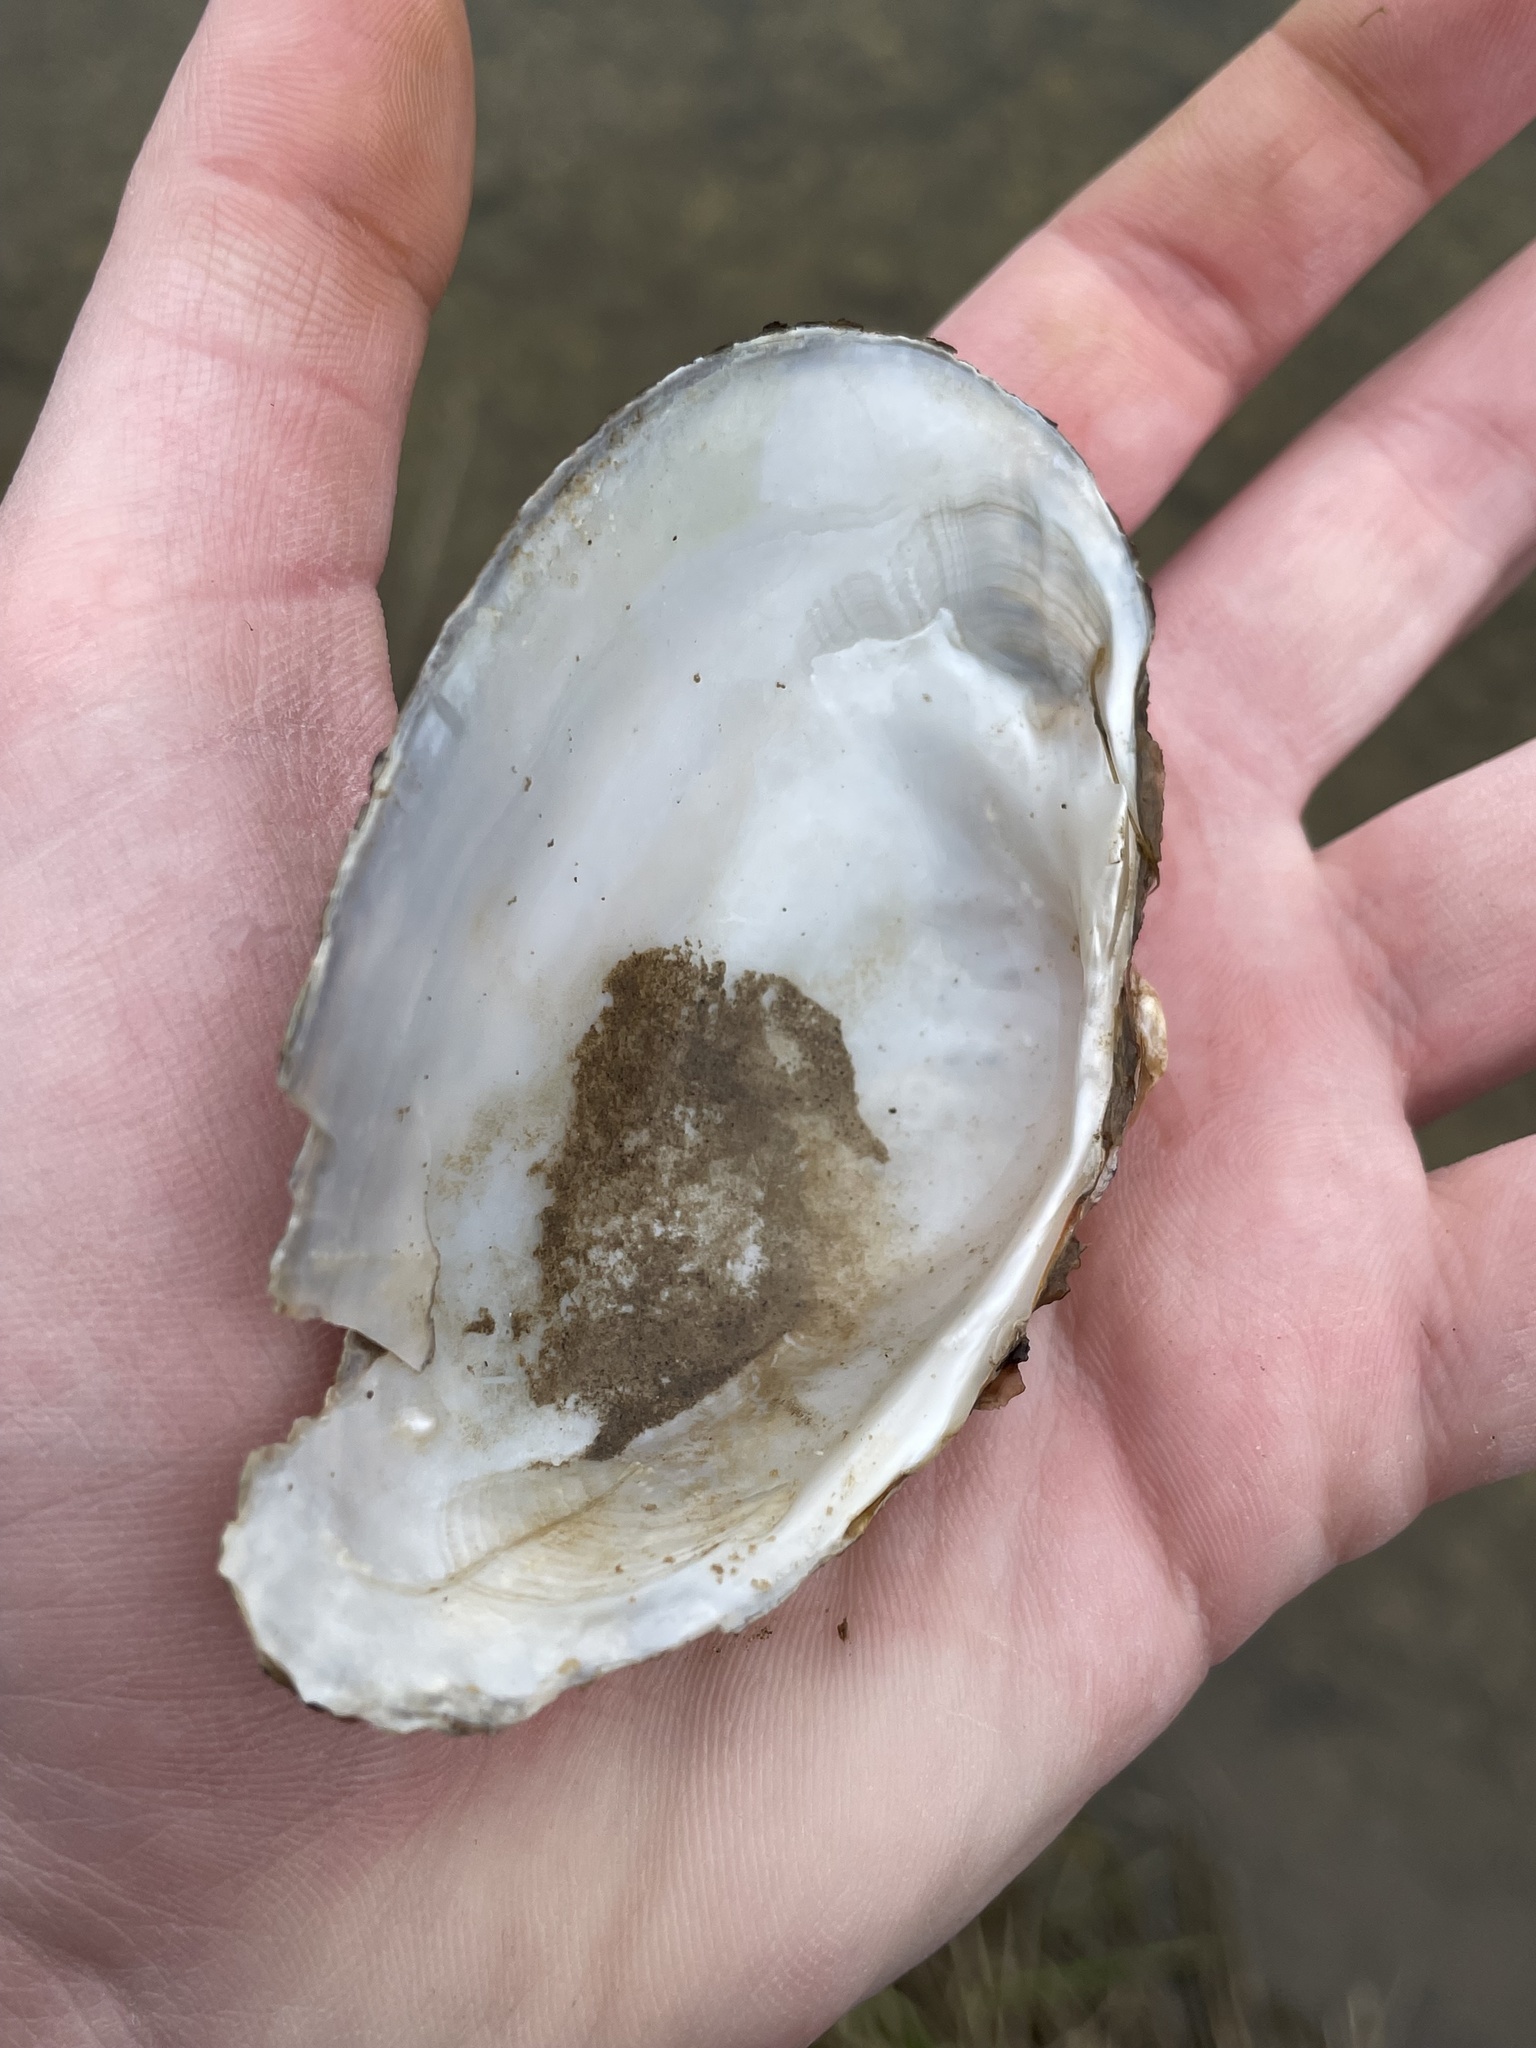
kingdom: Animalia
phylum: Mollusca
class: Bivalvia
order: Unionida
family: Unionidae
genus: Alasmidonta
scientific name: Alasmidonta marginata
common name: Elktoe
